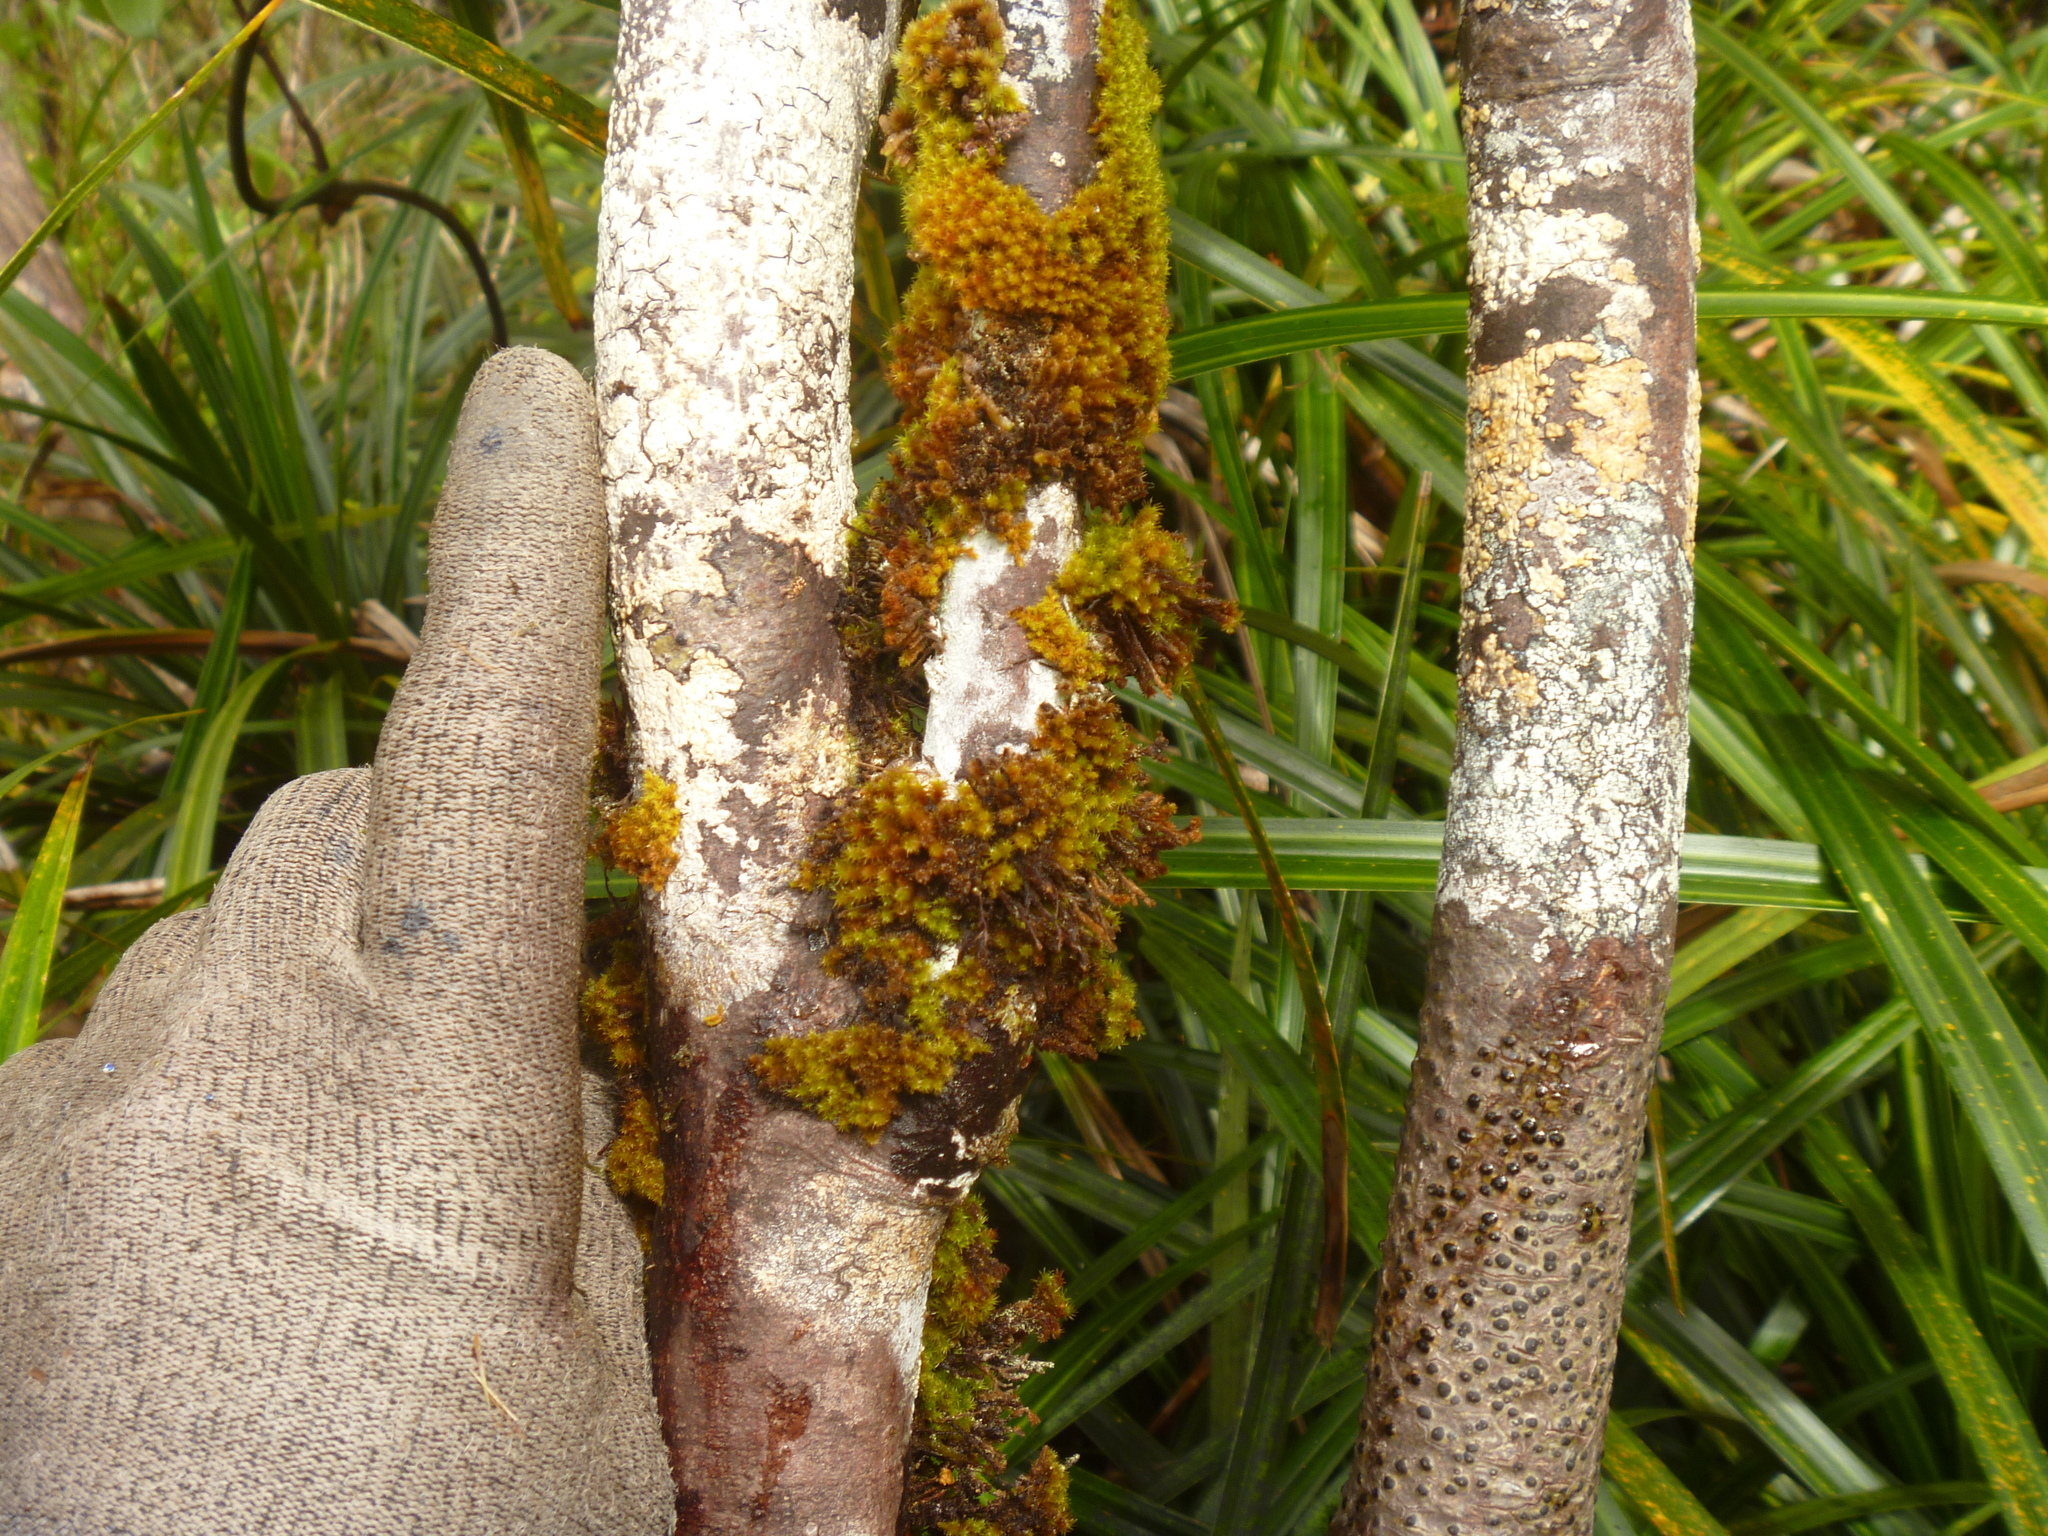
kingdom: Plantae
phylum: Tracheophyta
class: Magnoliopsida
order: Laurales
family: Lauraceae
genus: Beilschmiedia
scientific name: Beilschmiedia tawa
